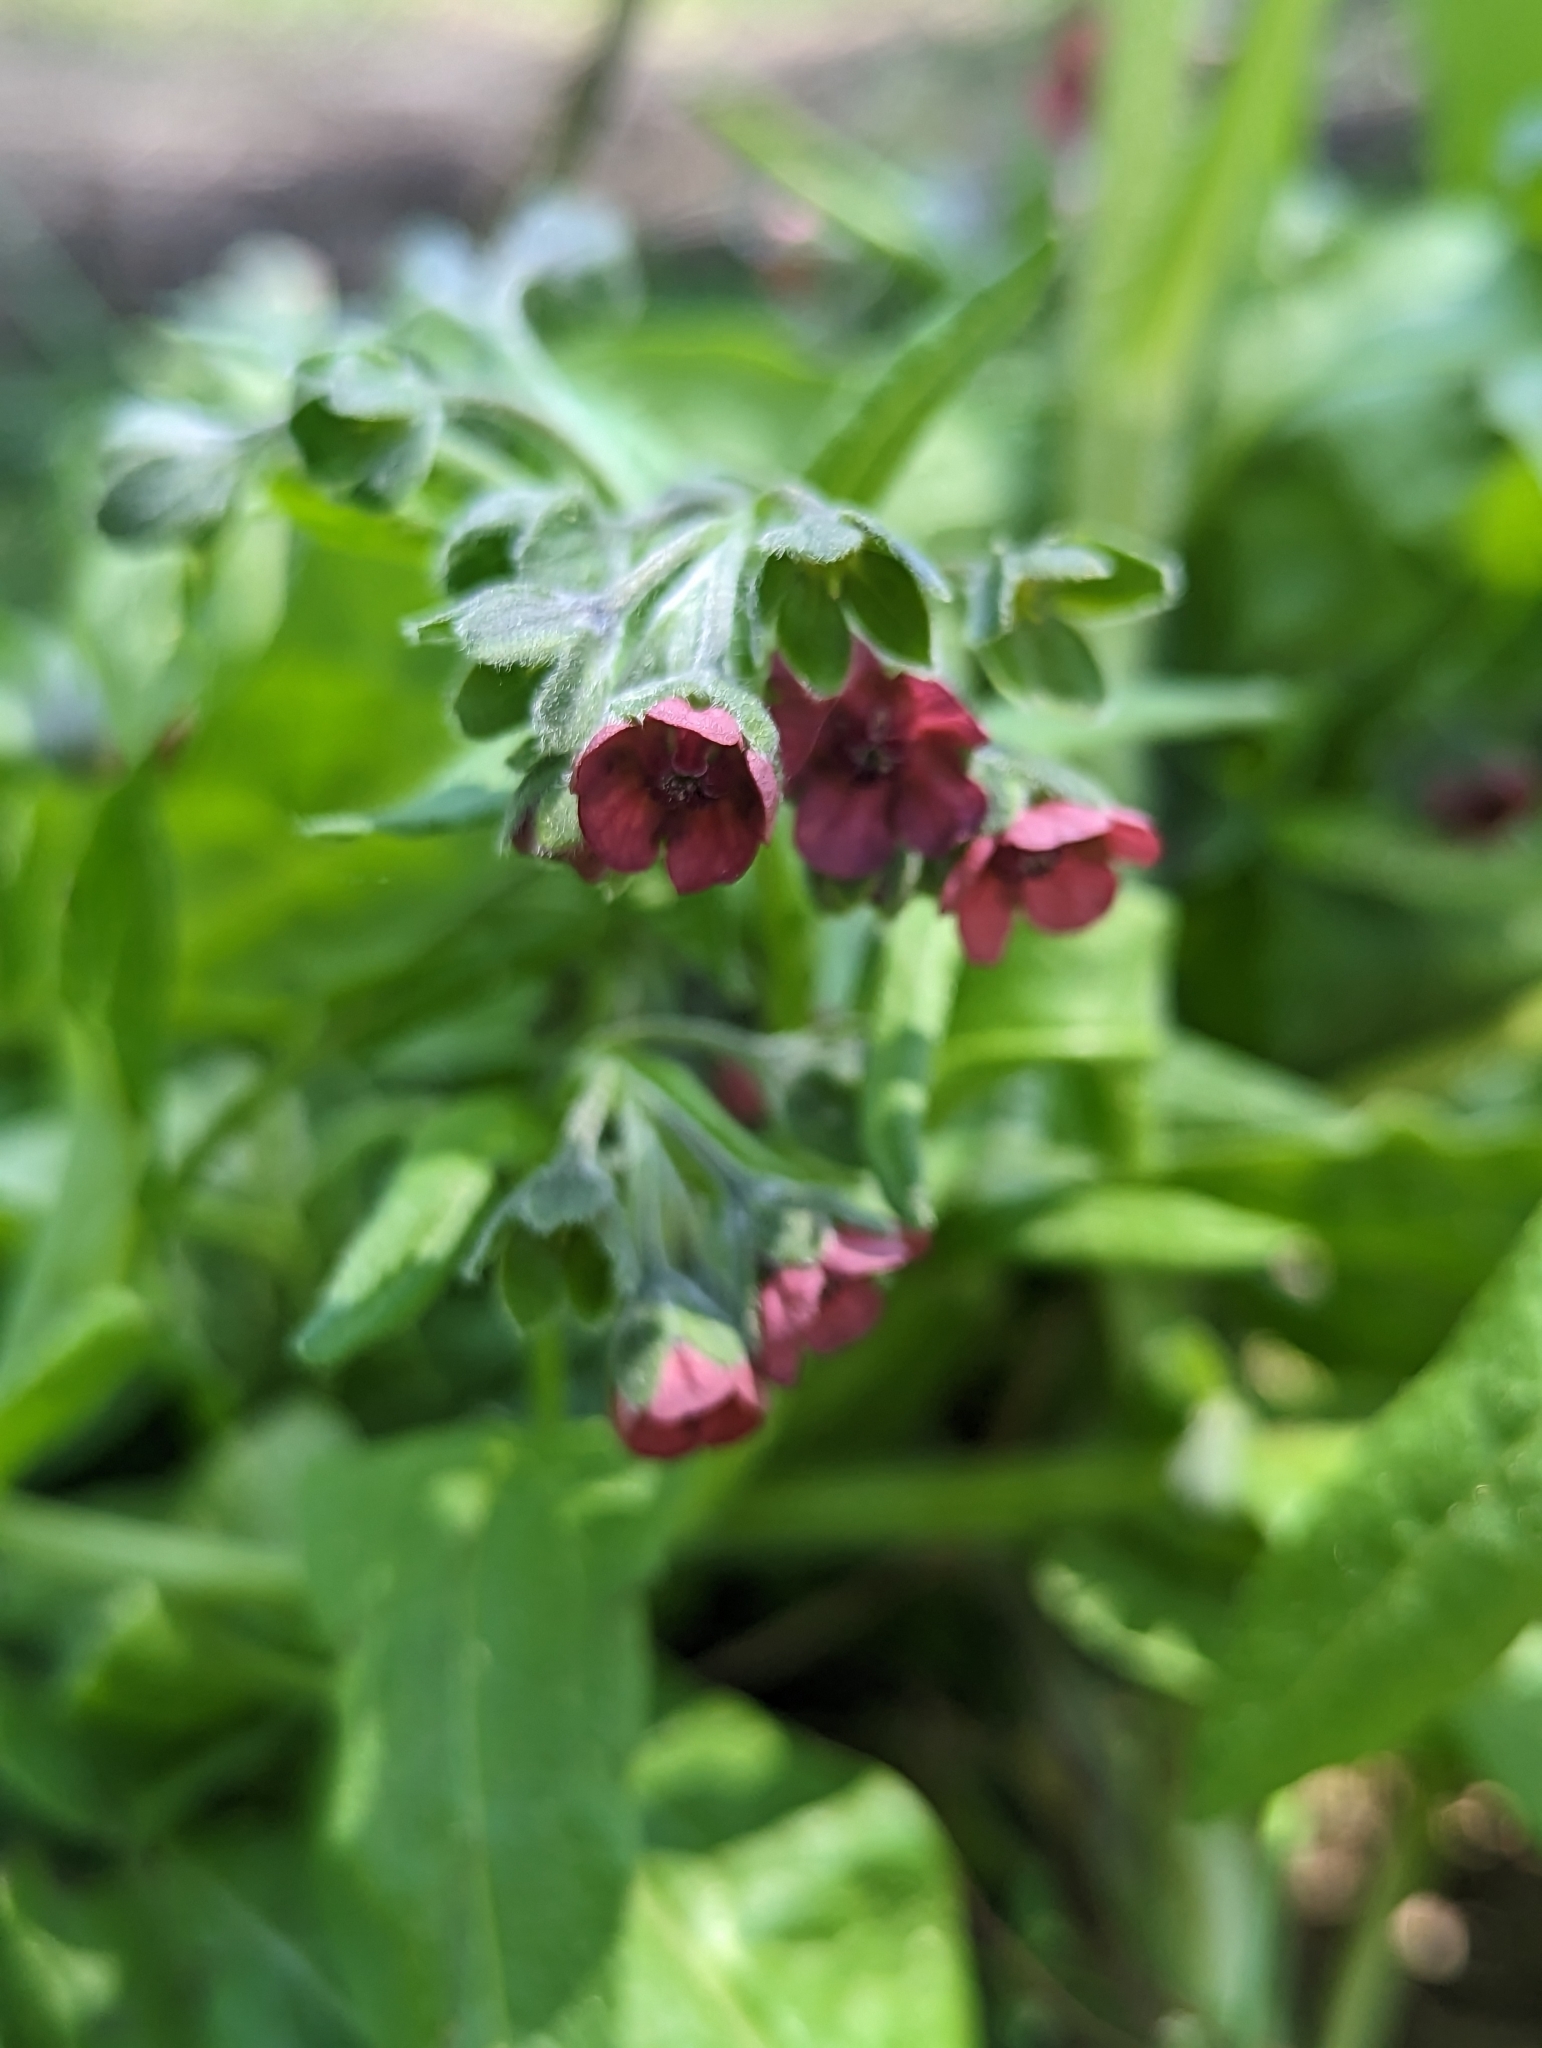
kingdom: Plantae
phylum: Tracheophyta
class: Magnoliopsida
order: Boraginales
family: Boraginaceae
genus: Cynoglossum
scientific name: Cynoglossum officinale
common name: Hound's-tongue
